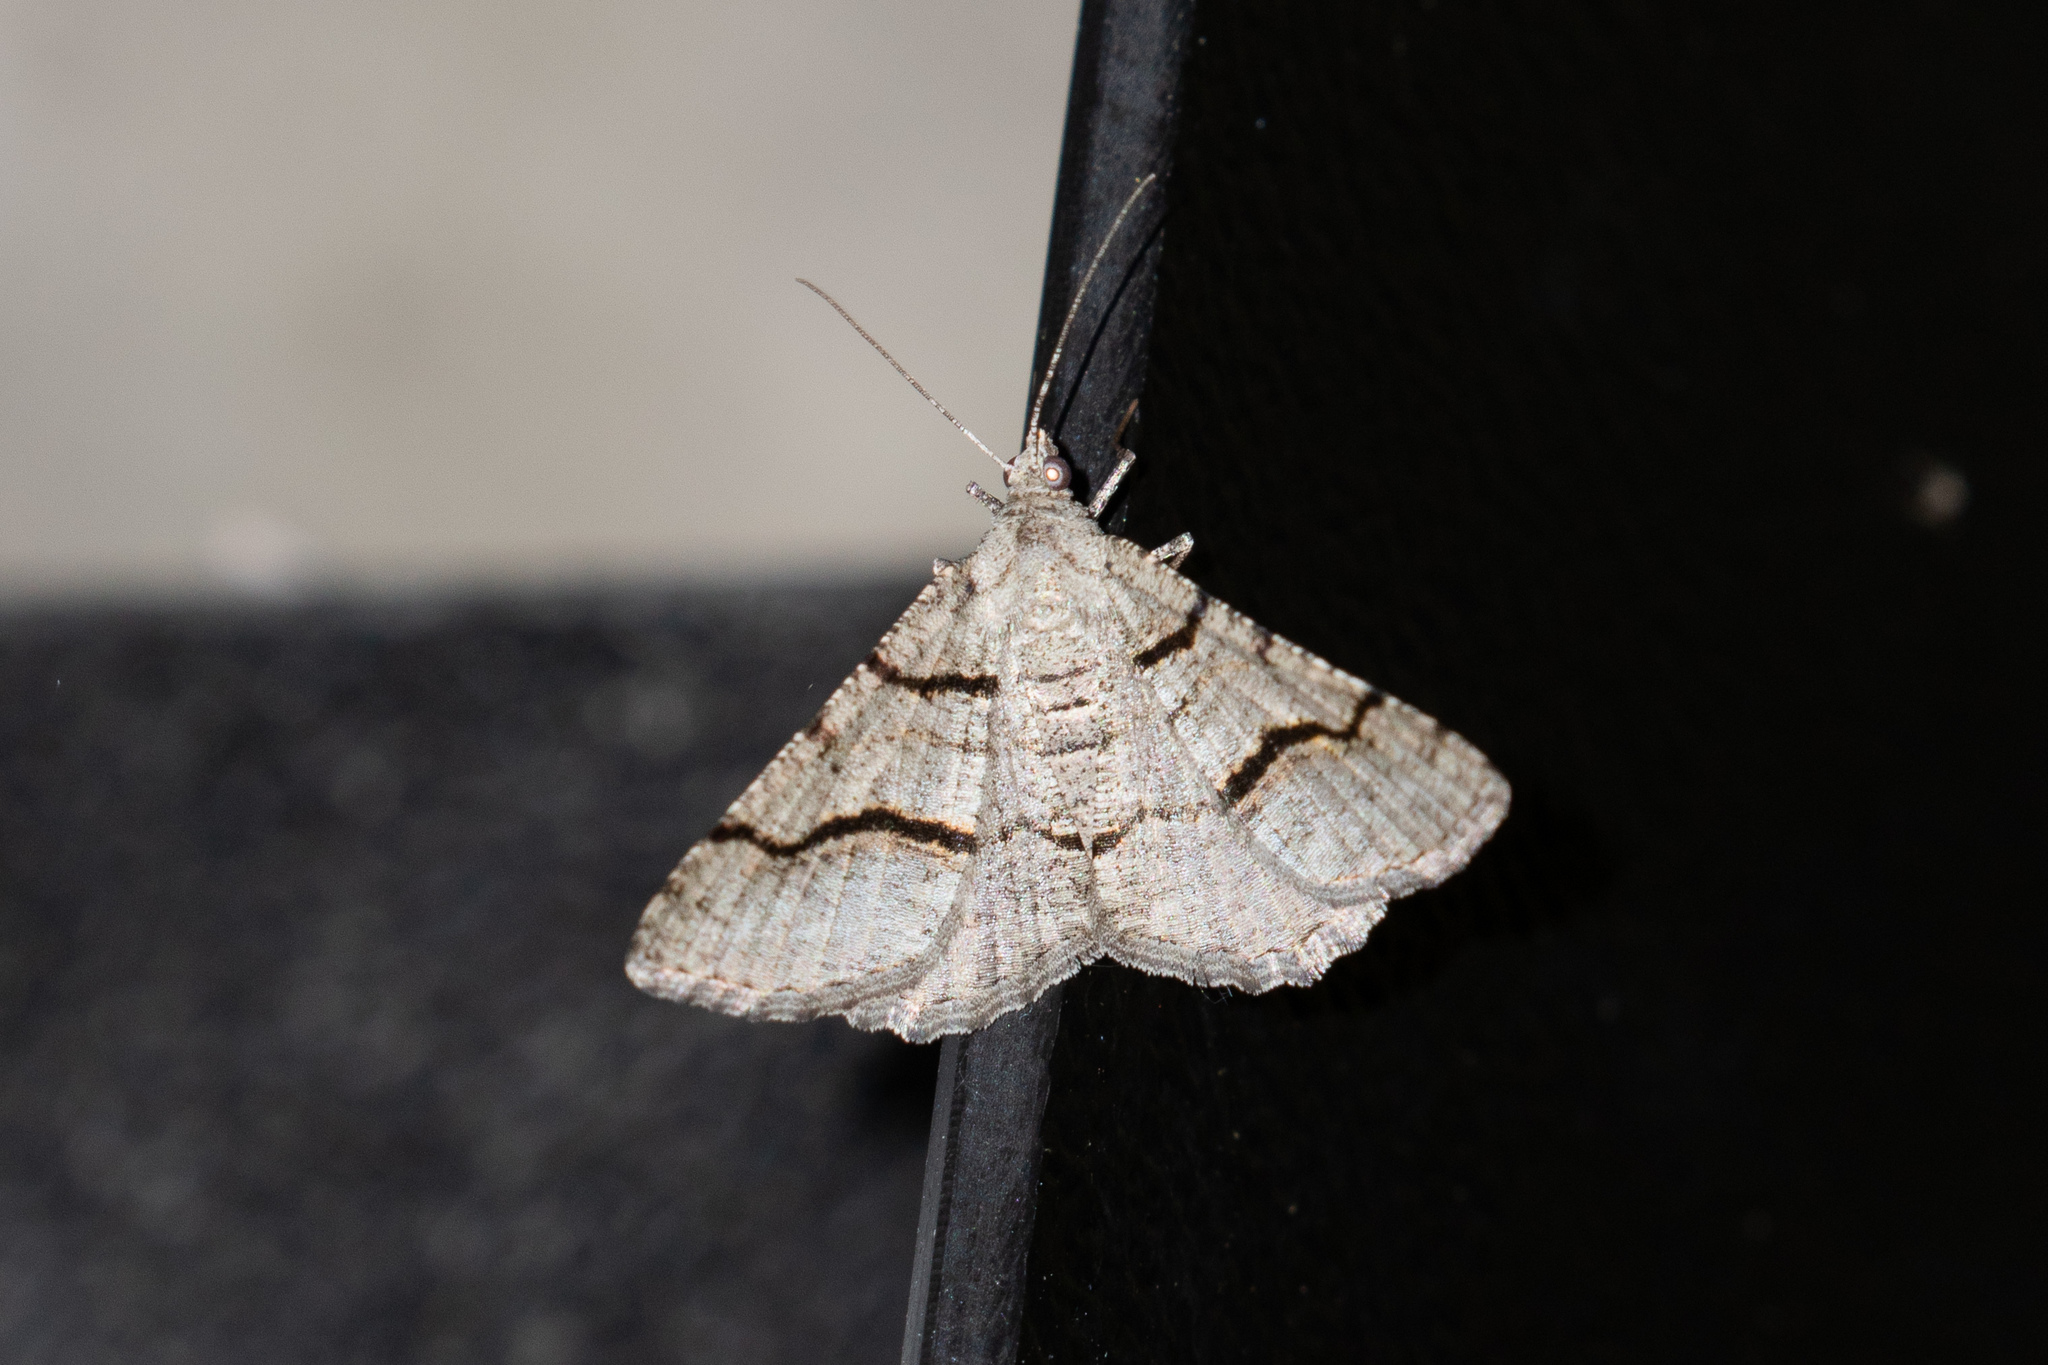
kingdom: Animalia
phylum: Arthropoda
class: Insecta
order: Lepidoptera
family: Geometridae
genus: Digrammia
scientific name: Digrammia continuata
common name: Curve-lined angle
